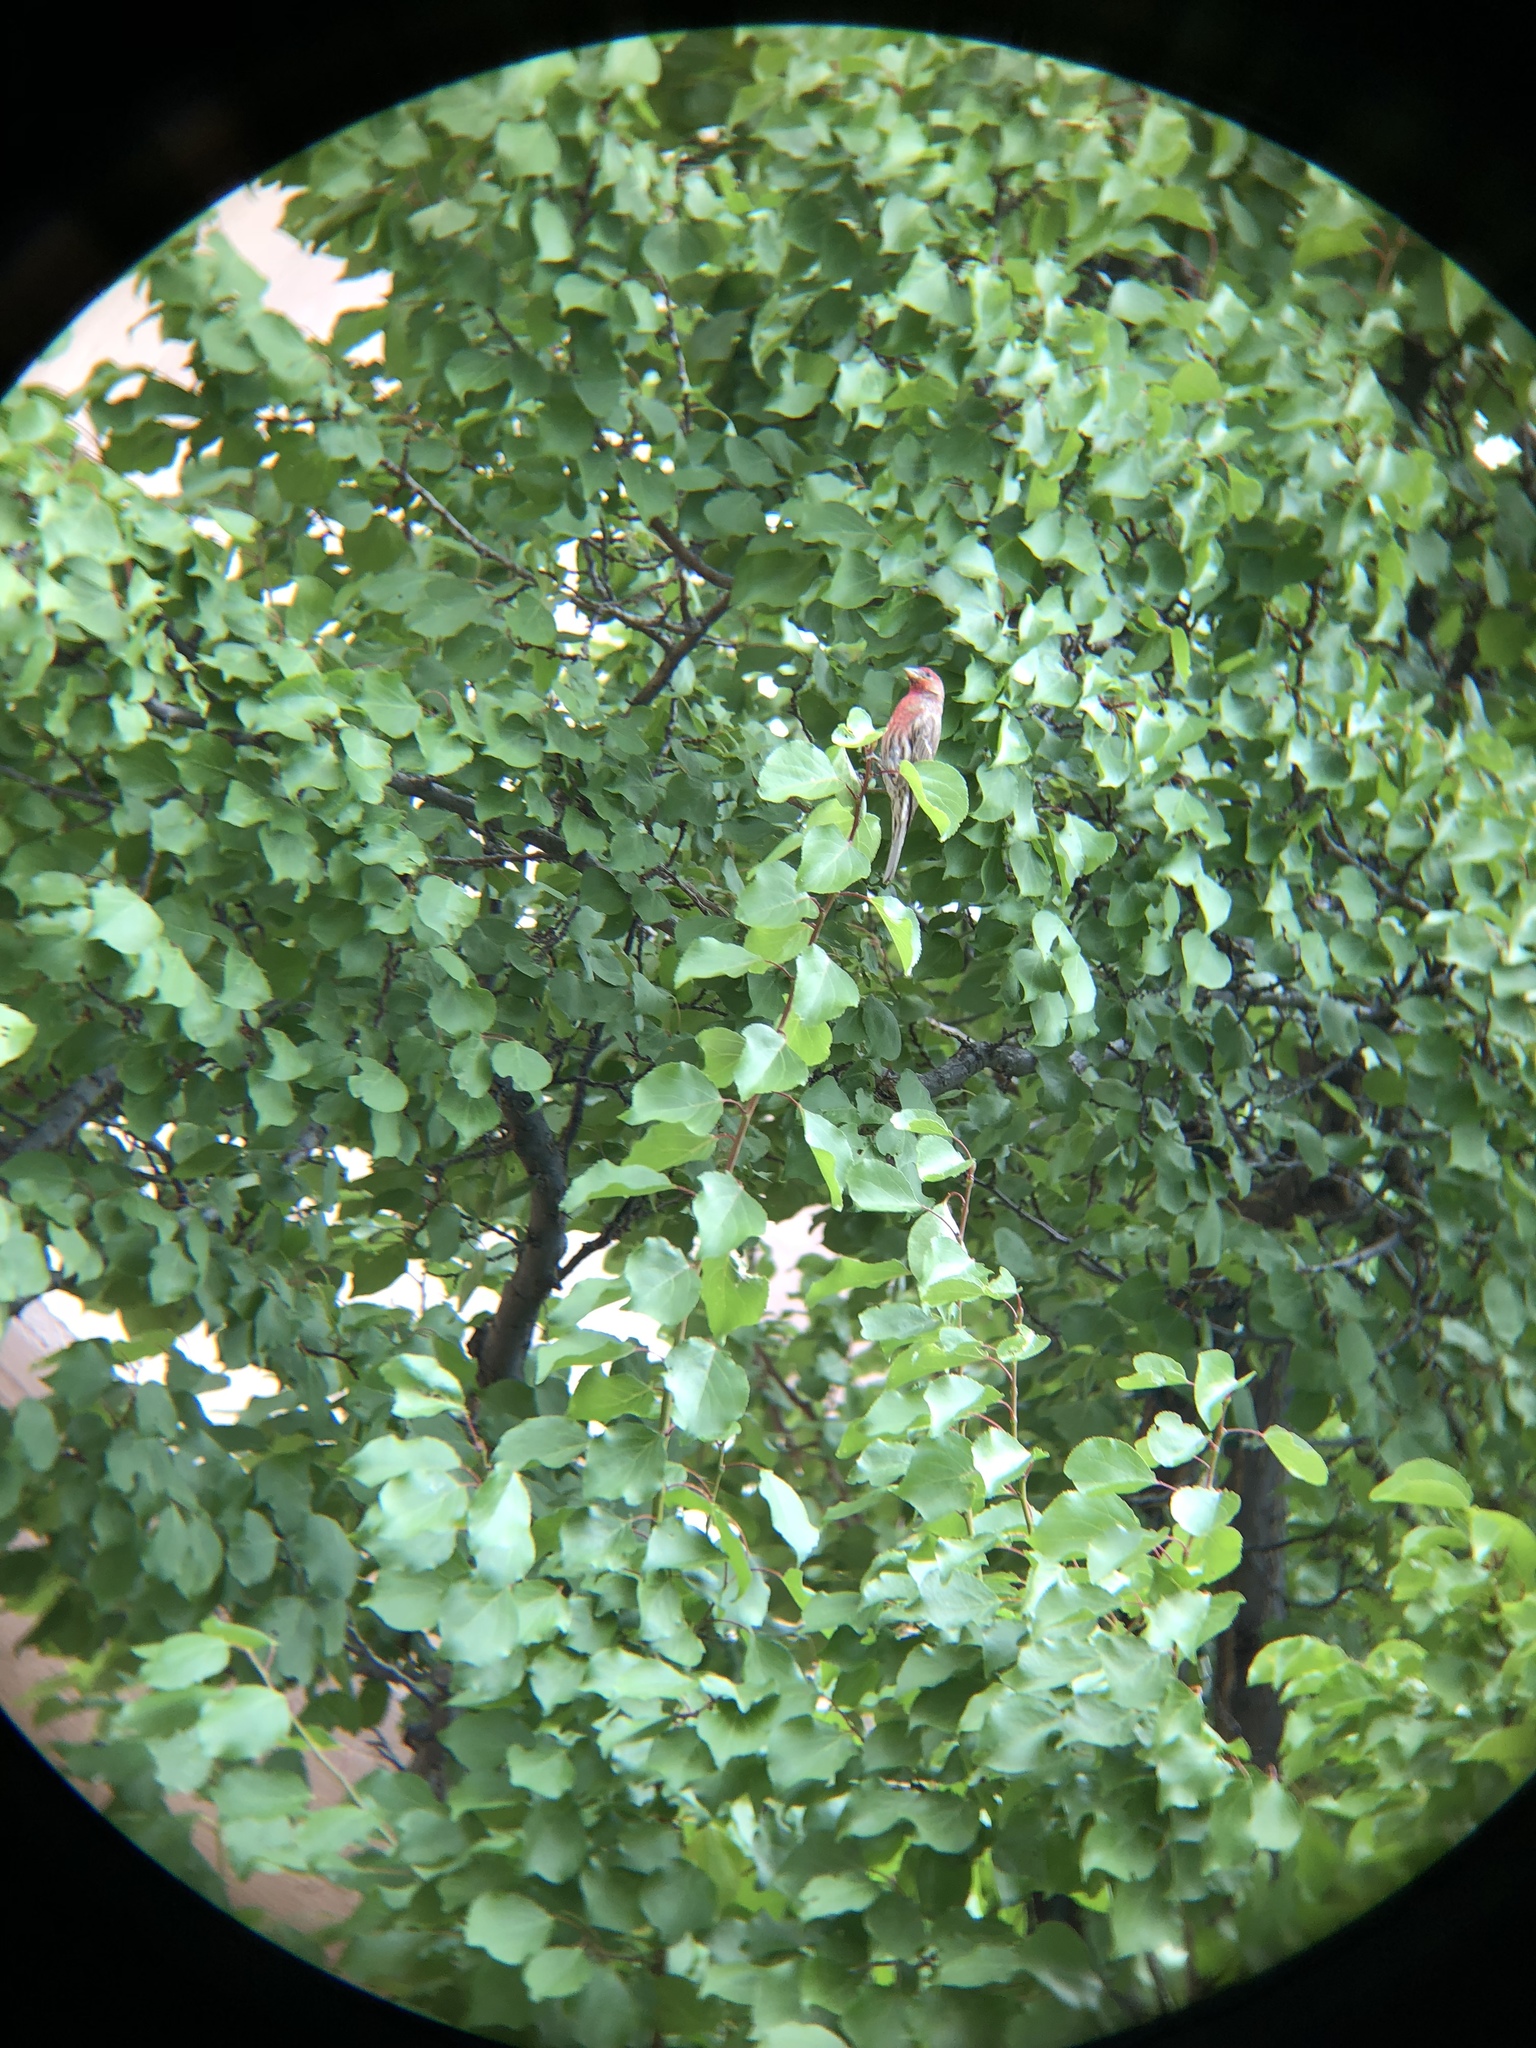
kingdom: Animalia
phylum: Chordata
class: Aves
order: Passeriformes
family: Fringillidae
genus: Haemorhous
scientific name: Haemorhous mexicanus
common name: House finch
